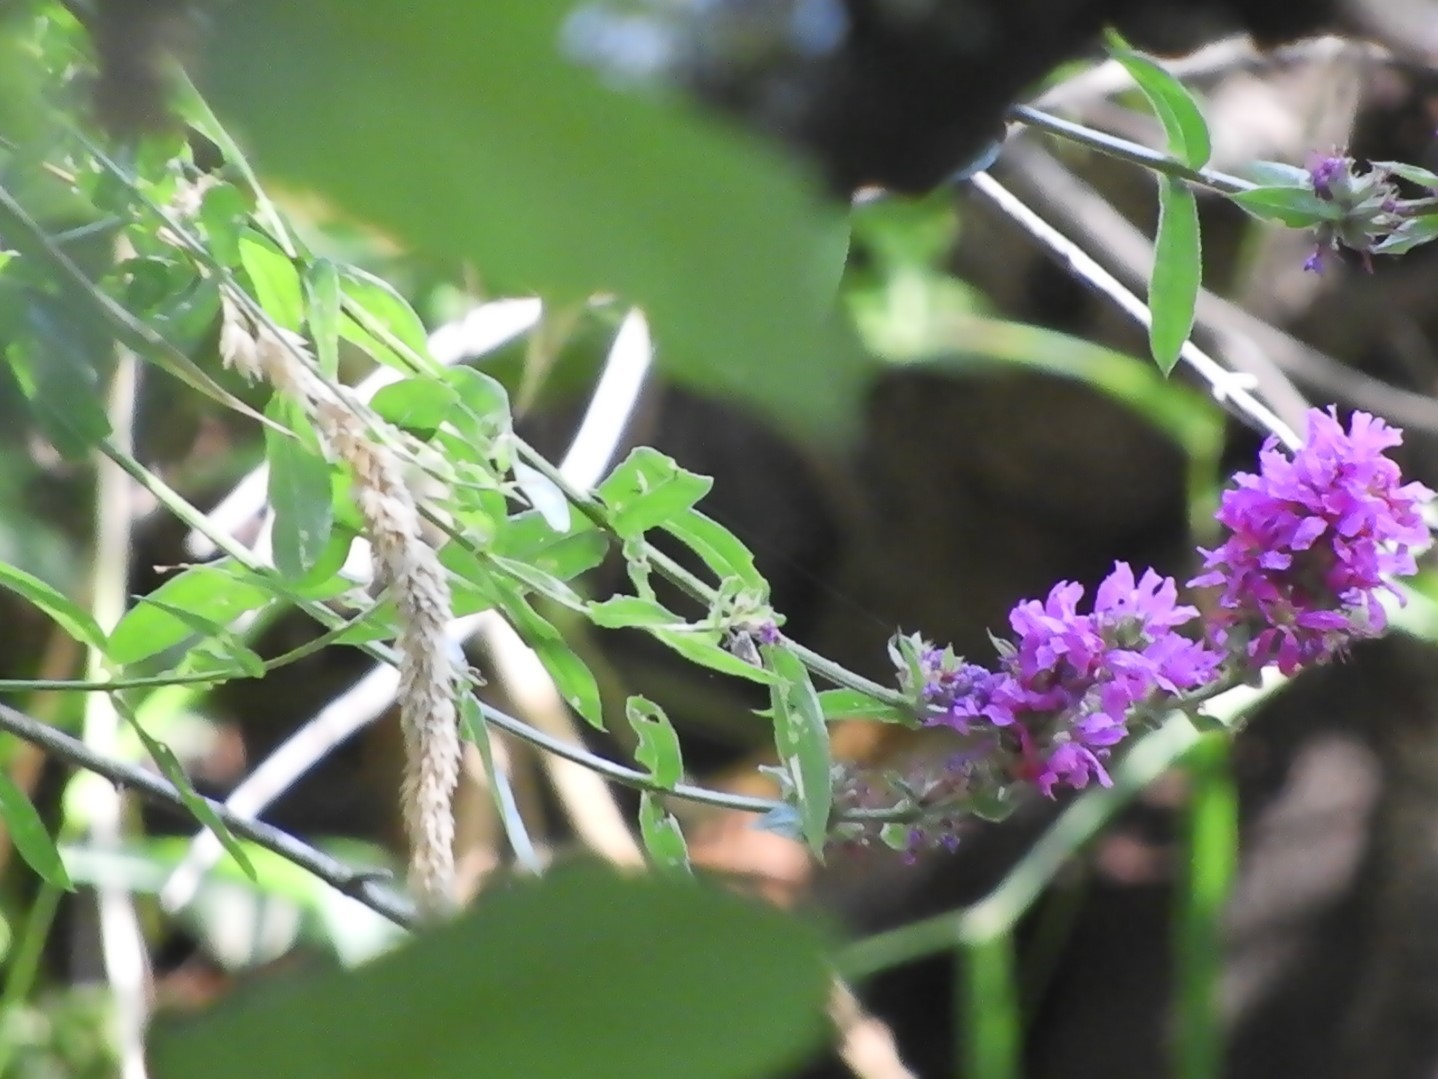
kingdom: Plantae
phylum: Tracheophyta
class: Magnoliopsida
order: Myrtales
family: Lythraceae
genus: Lythrum
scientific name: Lythrum salicaria
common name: Purple loosestrife
